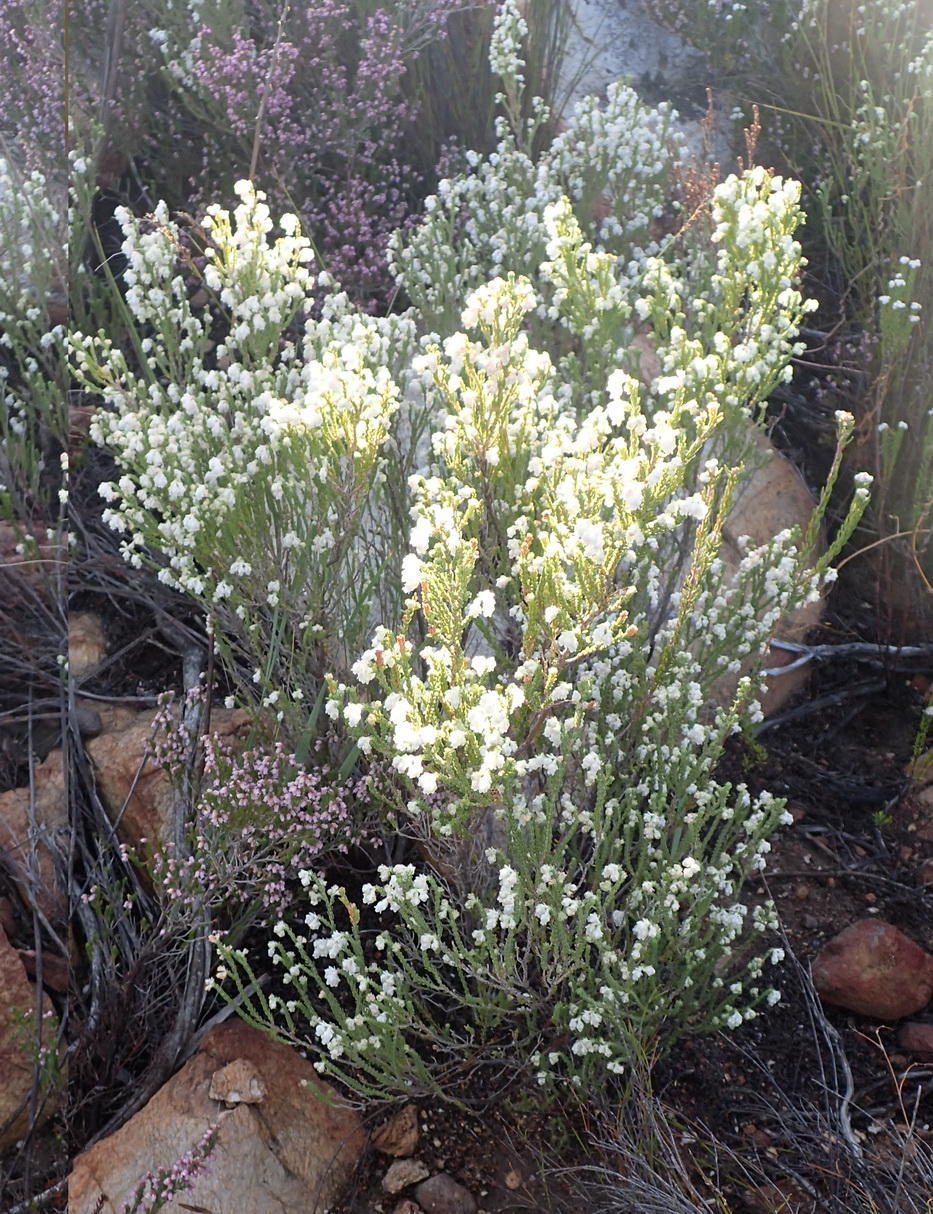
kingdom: Plantae
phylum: Tracheophyta
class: Magnoliopsida
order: Ericales
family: Ericaceae
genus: Erica
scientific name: Erica fimbriata
